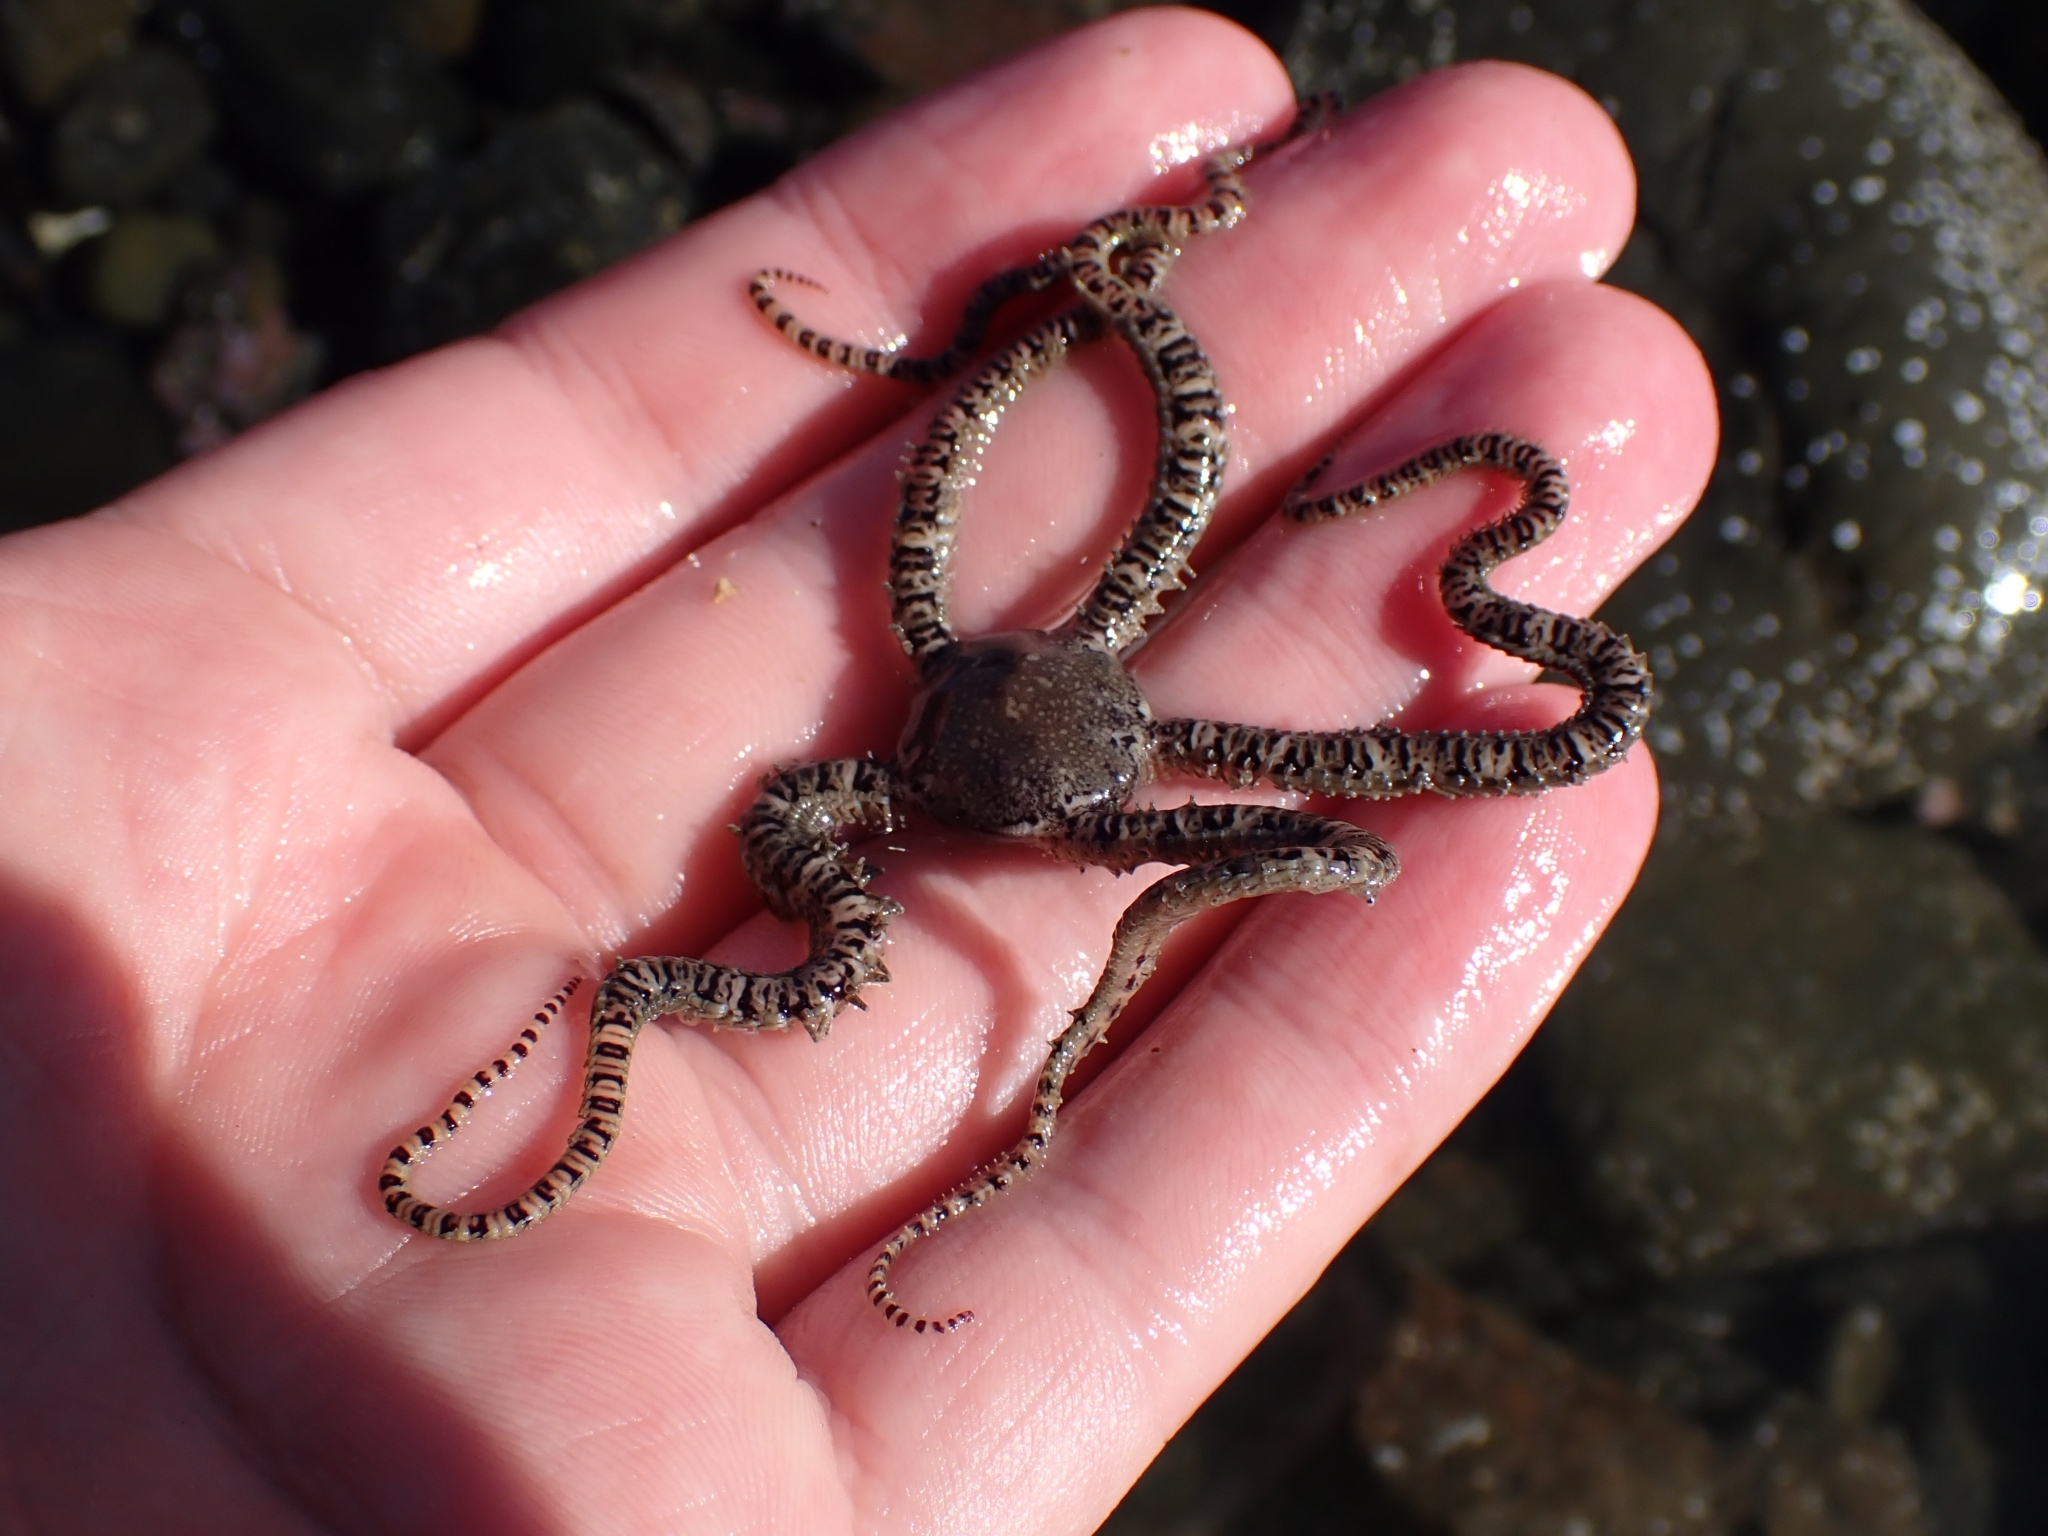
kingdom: Animalia
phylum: Echinodermata
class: Ophiuroidea
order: Amphilepidida
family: Ophionereididae
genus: Ophionereis
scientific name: Ophionereis fasciata
